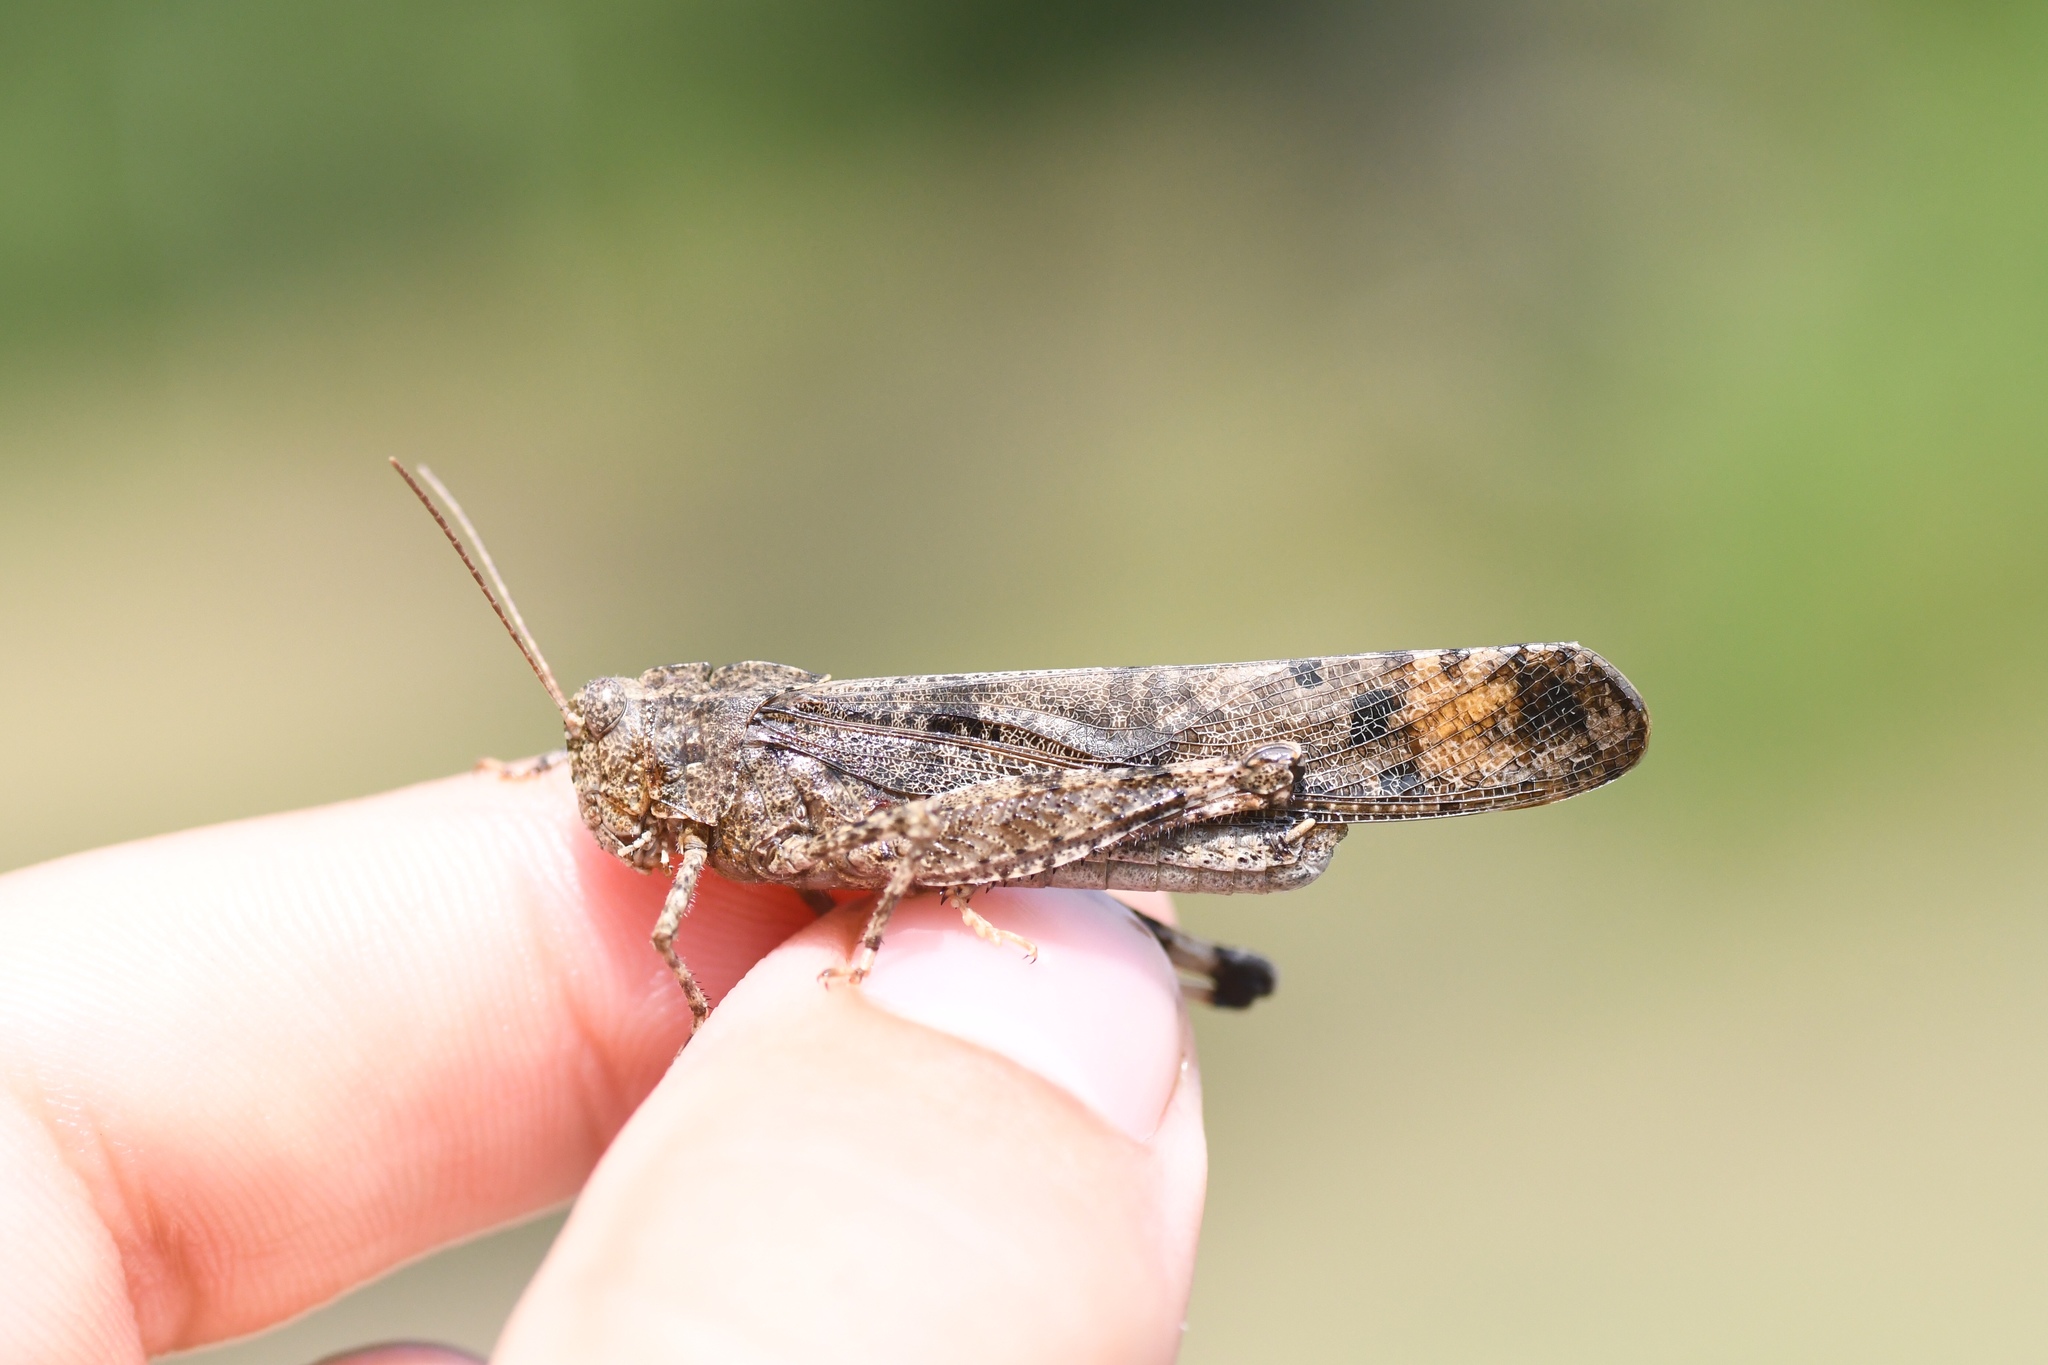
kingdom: Animalia
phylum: Arthropoda
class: Insecta
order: Orthoptera
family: Acrididae
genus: Dissosteira
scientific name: Dissosteira carolina
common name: Carolina grasshopper
